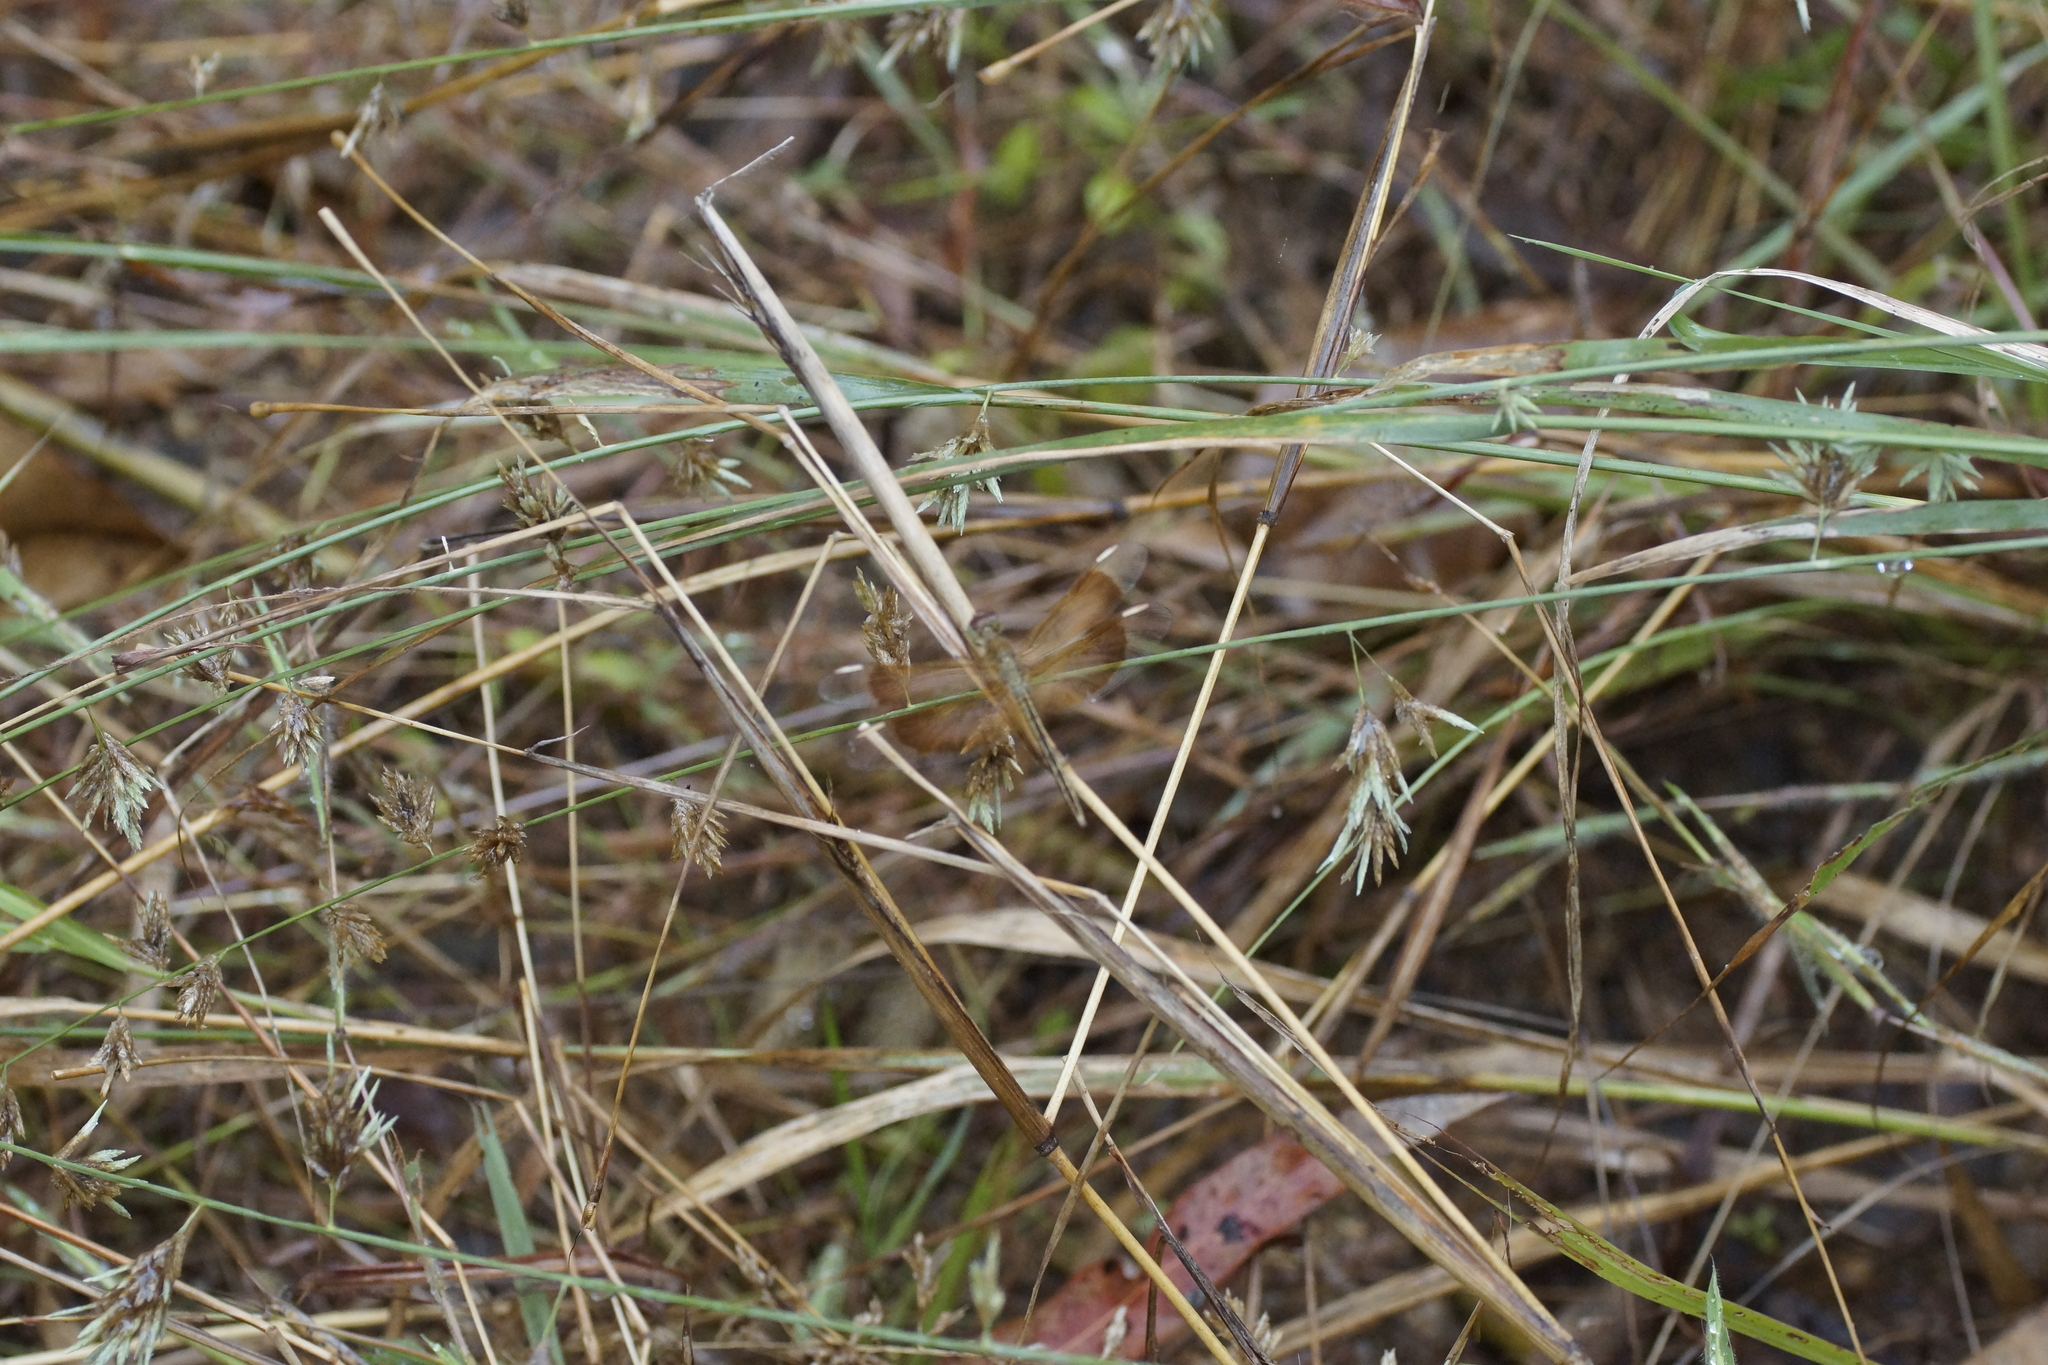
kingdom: Animalia
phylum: Arthropoda
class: Insecta
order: Odonata
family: Libellulidae
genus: Neurothemis
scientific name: Neurothemis stigmatizans
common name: Painted grasshawk
